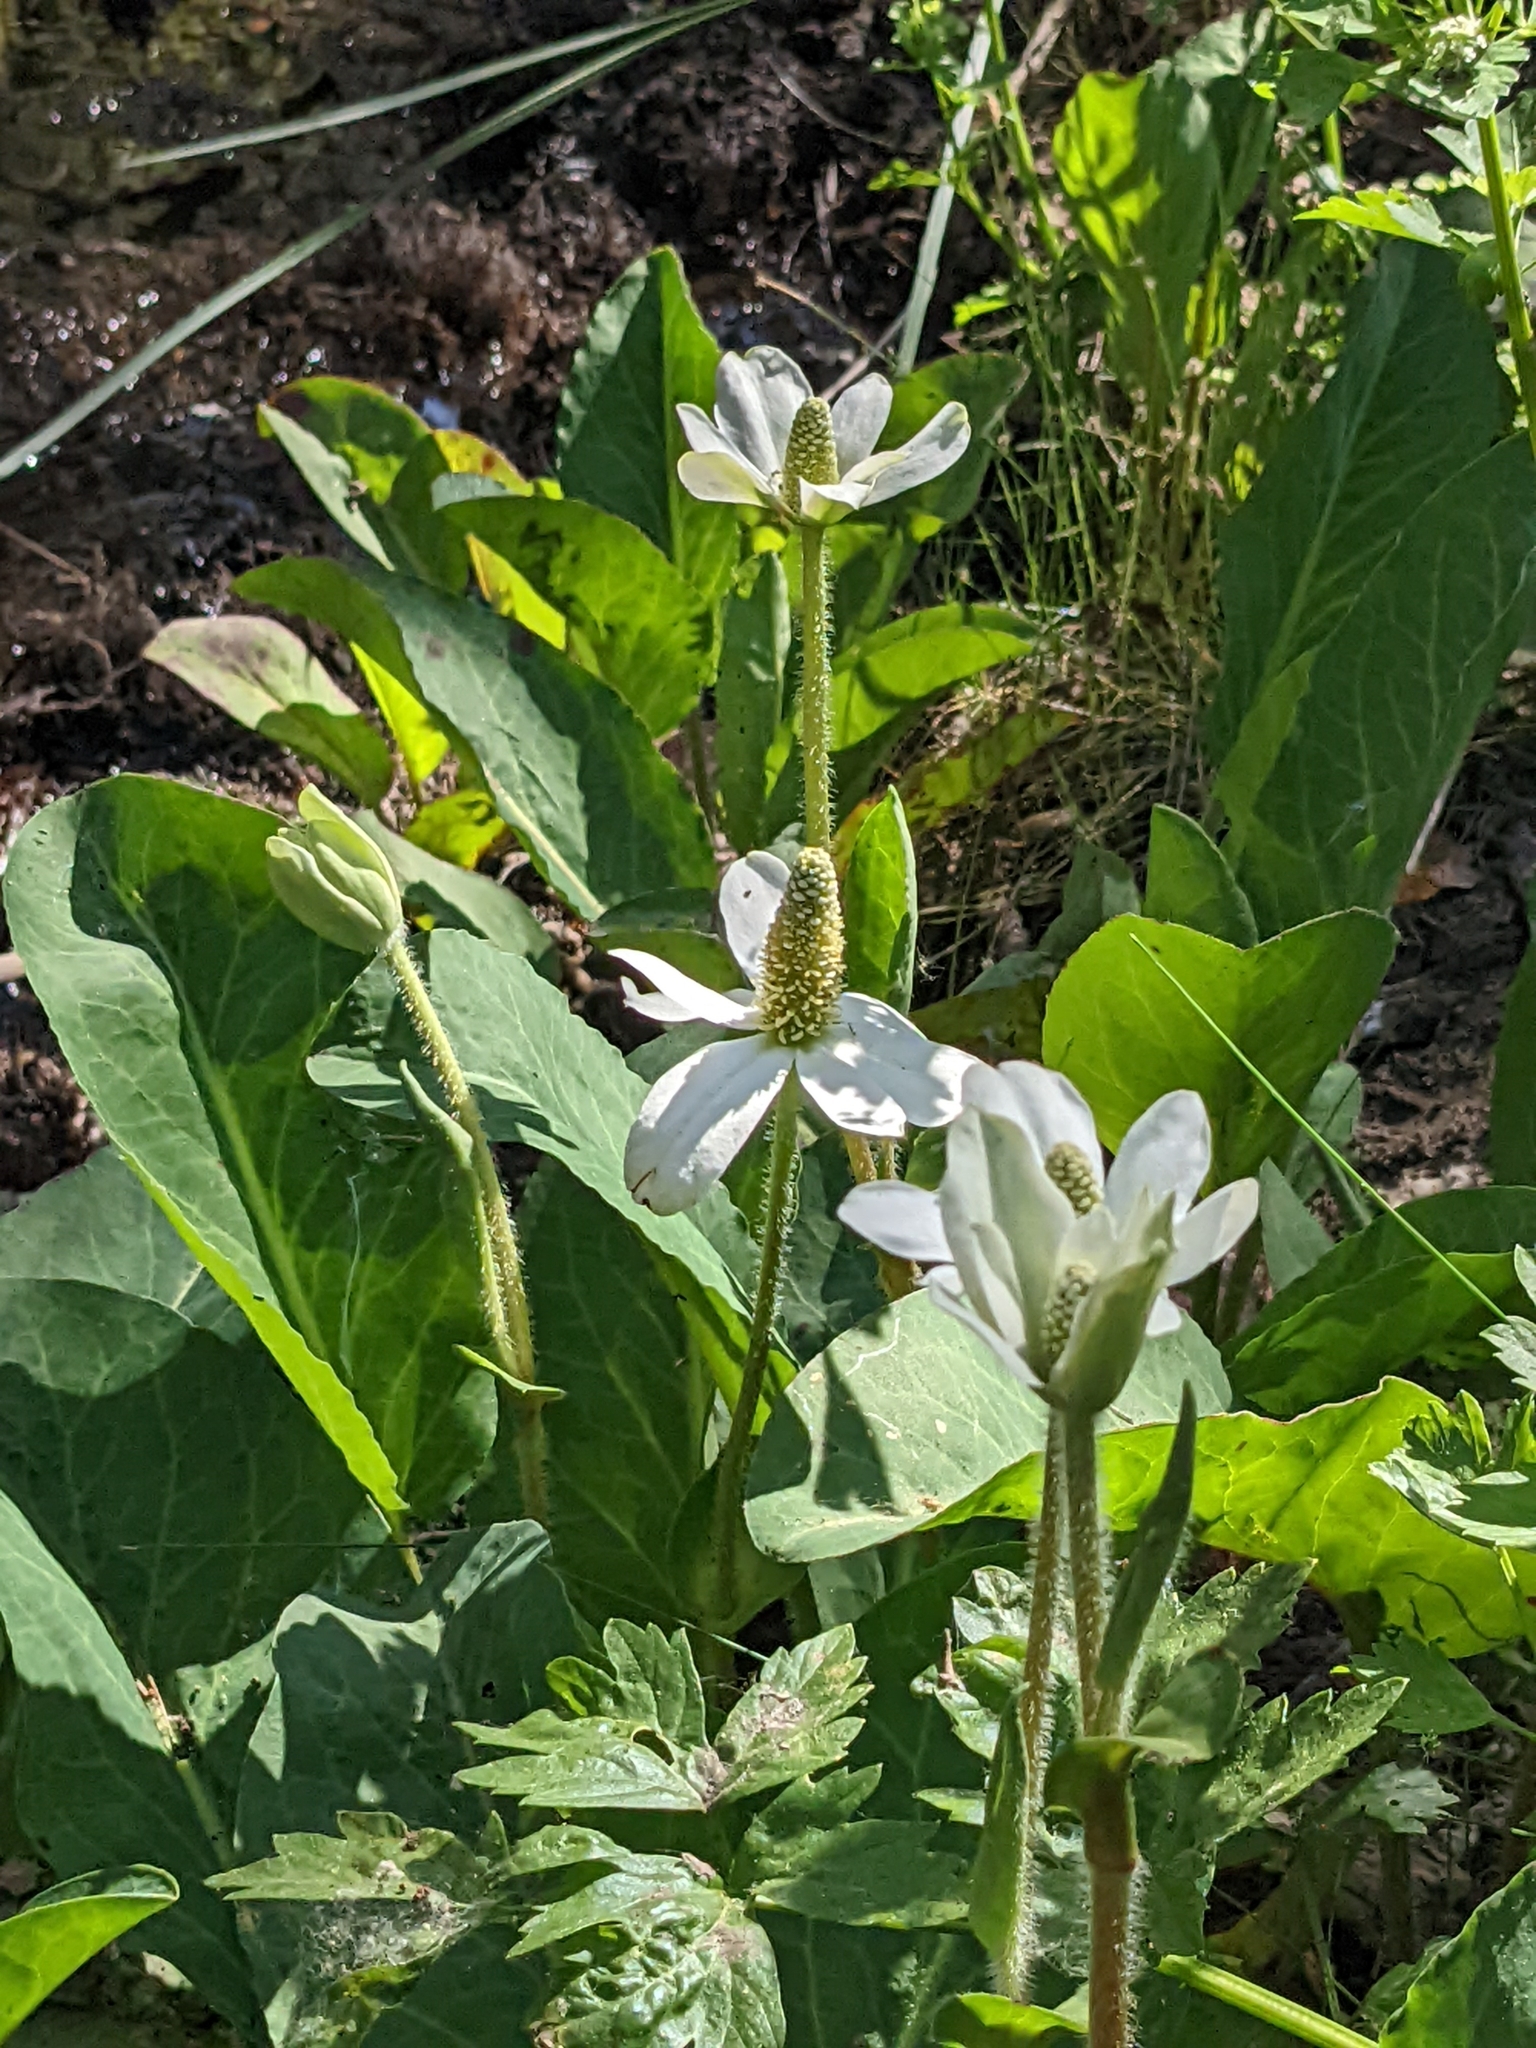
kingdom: Plantae
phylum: Tracheophyta
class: Magnoliopsida
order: Piperales
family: Saururaceae
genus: Anemopsis
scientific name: Anemopsis californica
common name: Apache-beads
